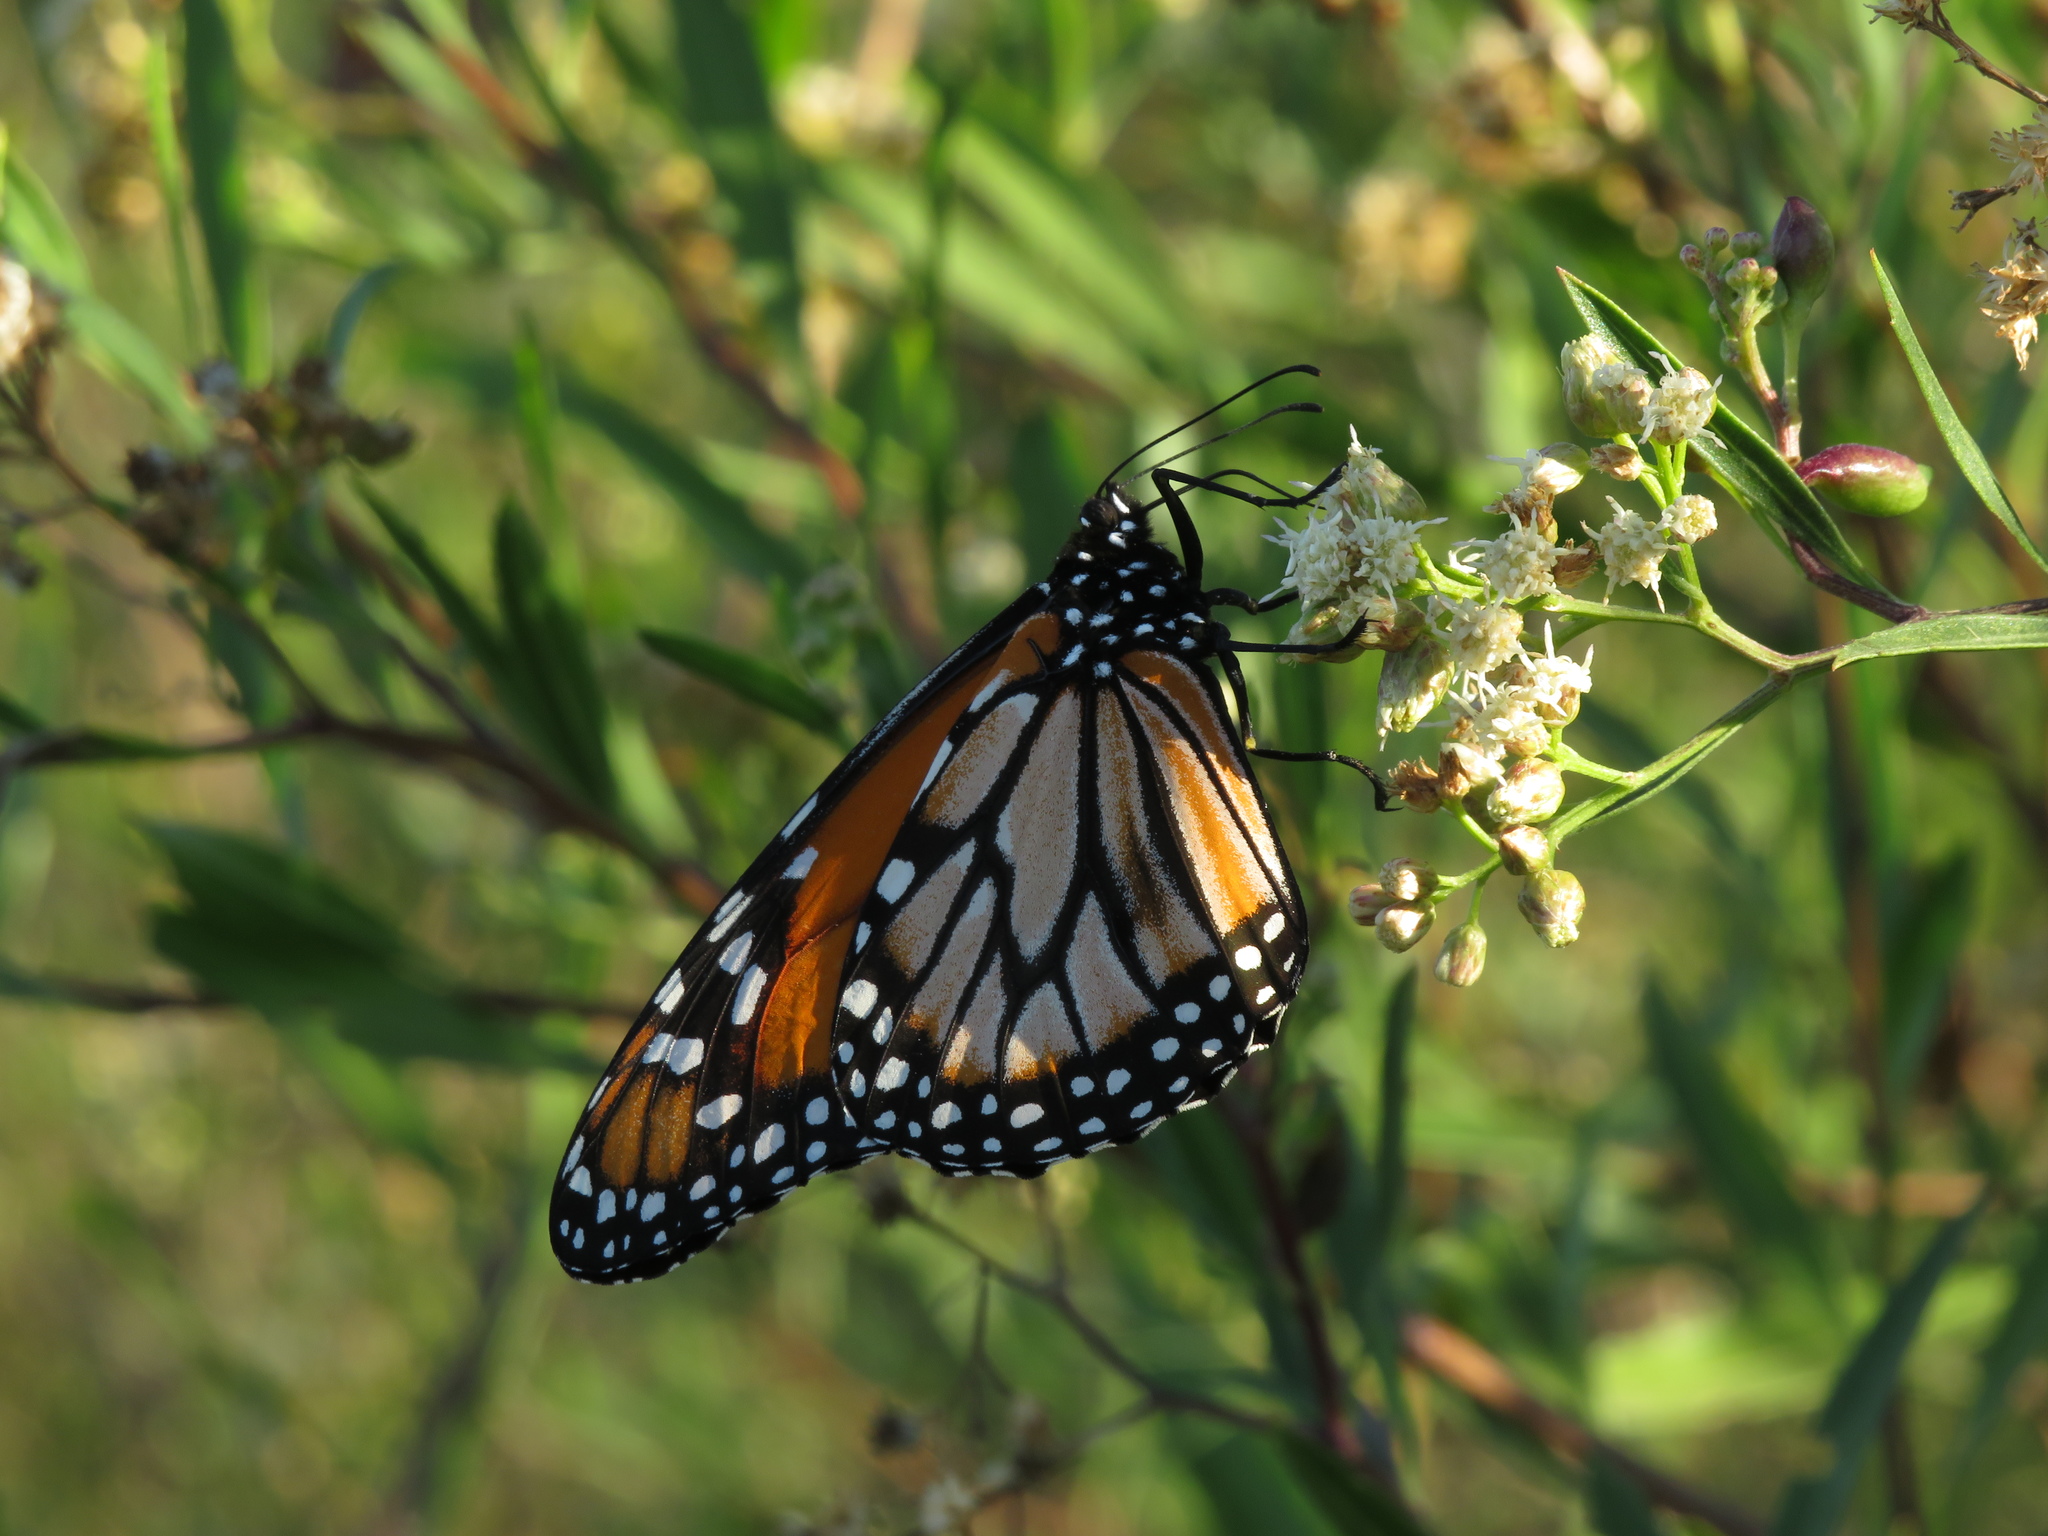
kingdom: Animalia
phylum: Arthropoda
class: Insecta
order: Lepidoptera
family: Nymphalidae
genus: Danaus
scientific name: Danaus erippus
